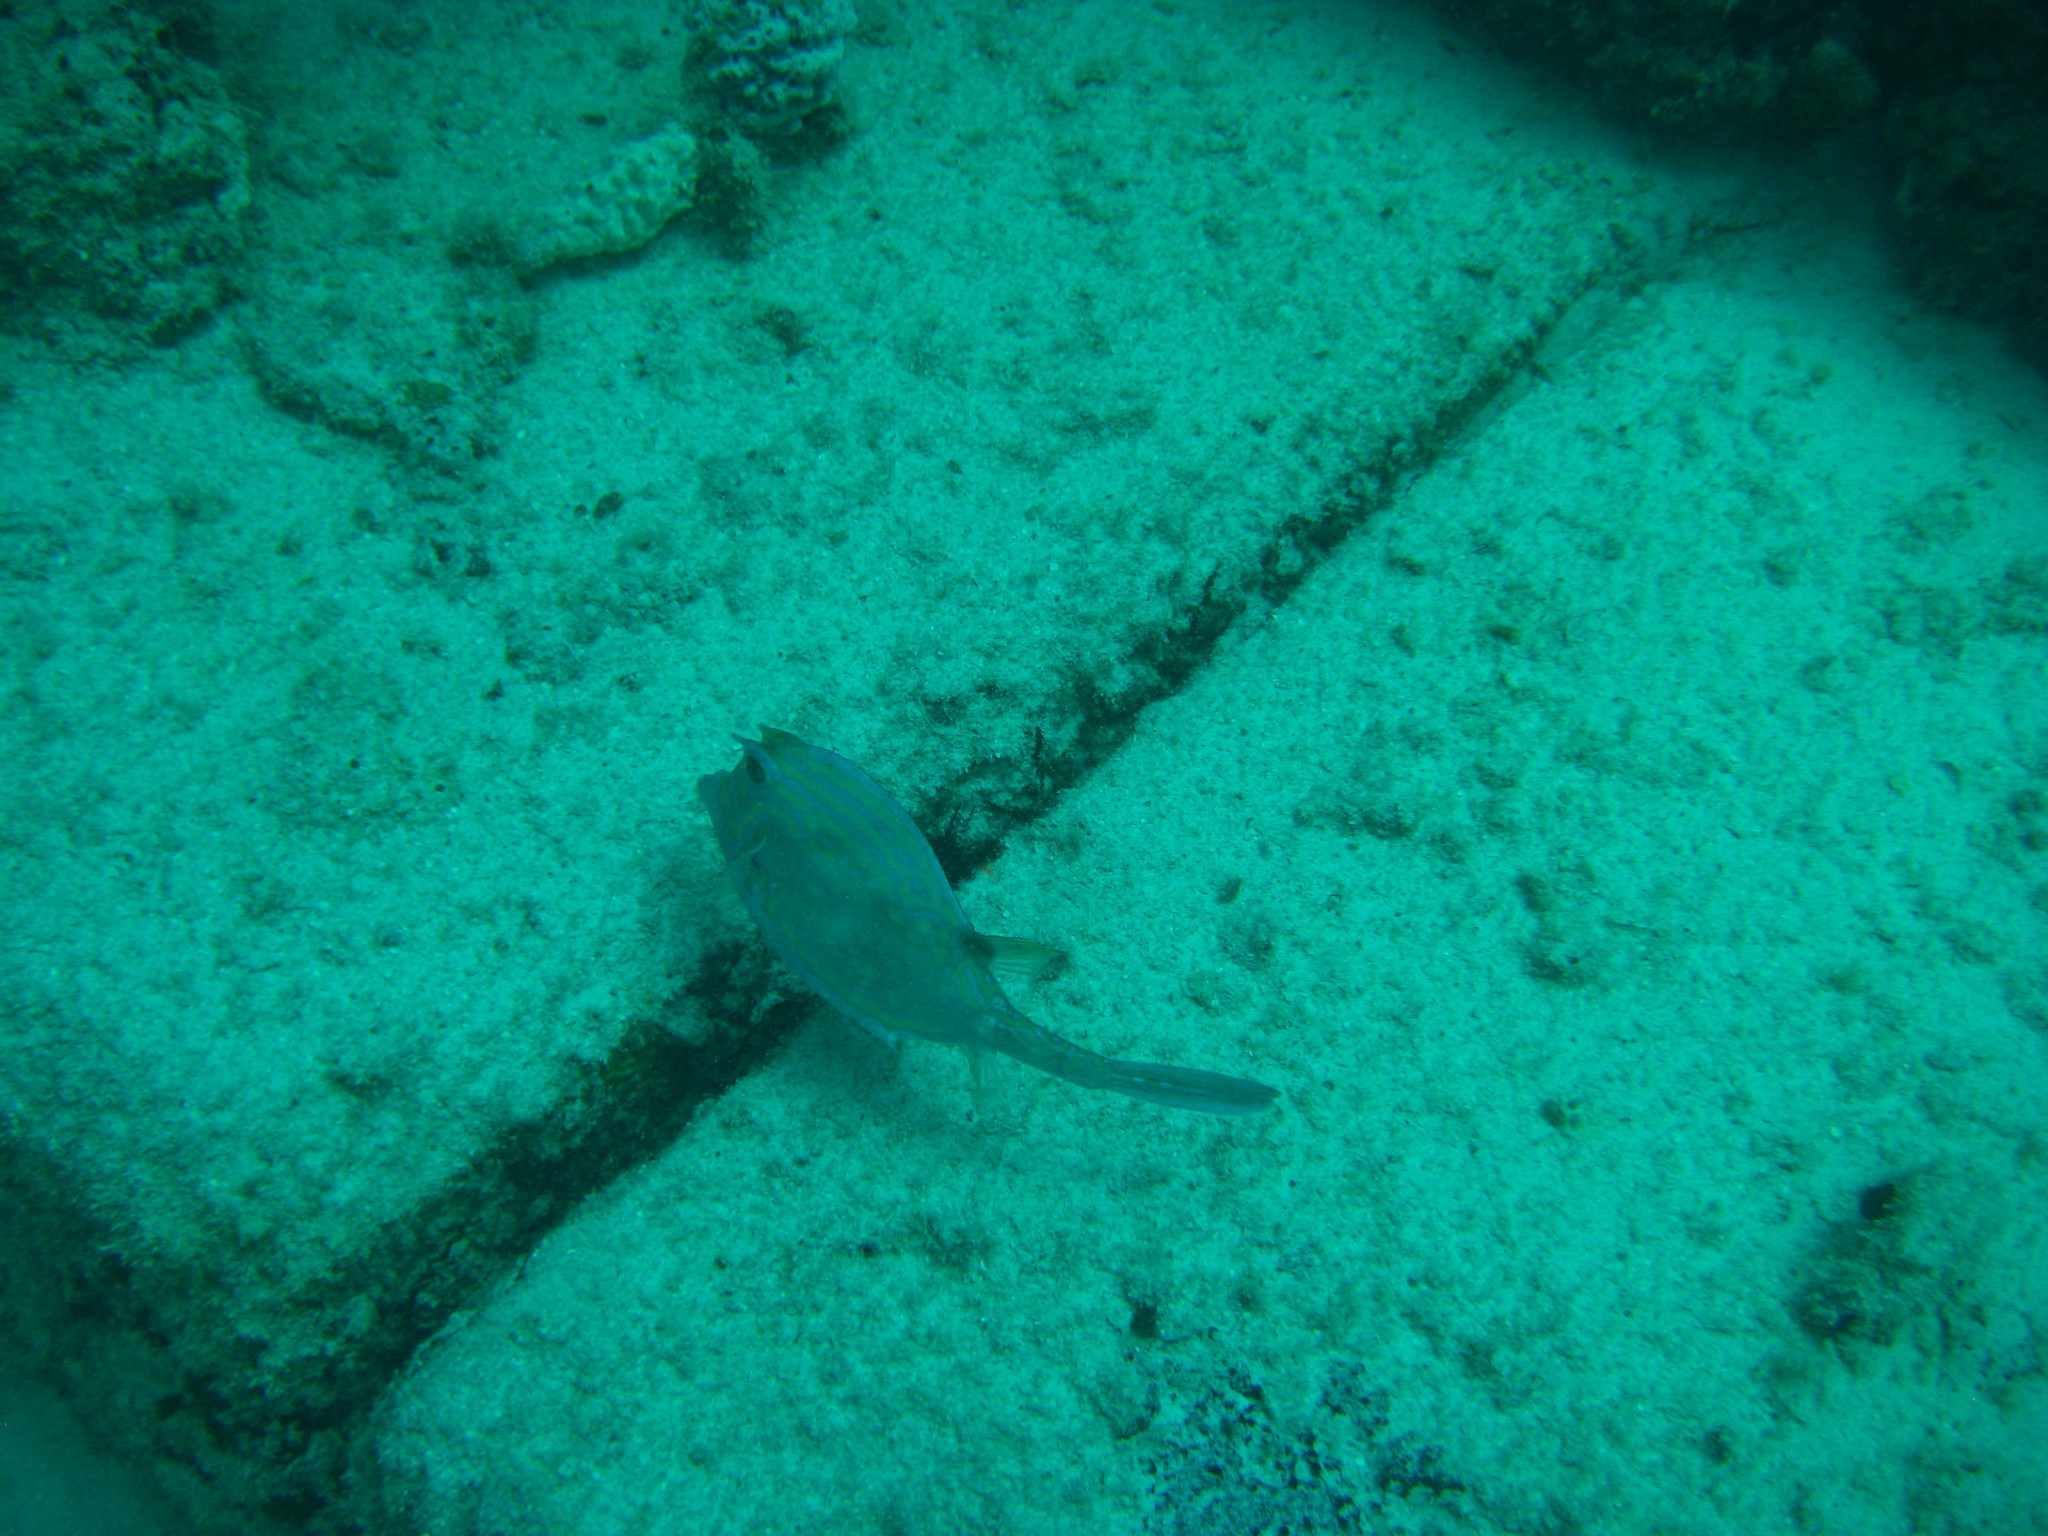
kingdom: Animalia
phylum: Chordata
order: Tetraodontiformes
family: Ostraciidae
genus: Acanthostracion
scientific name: Acanthostracion quadricornis
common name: Scrawled cowfish
